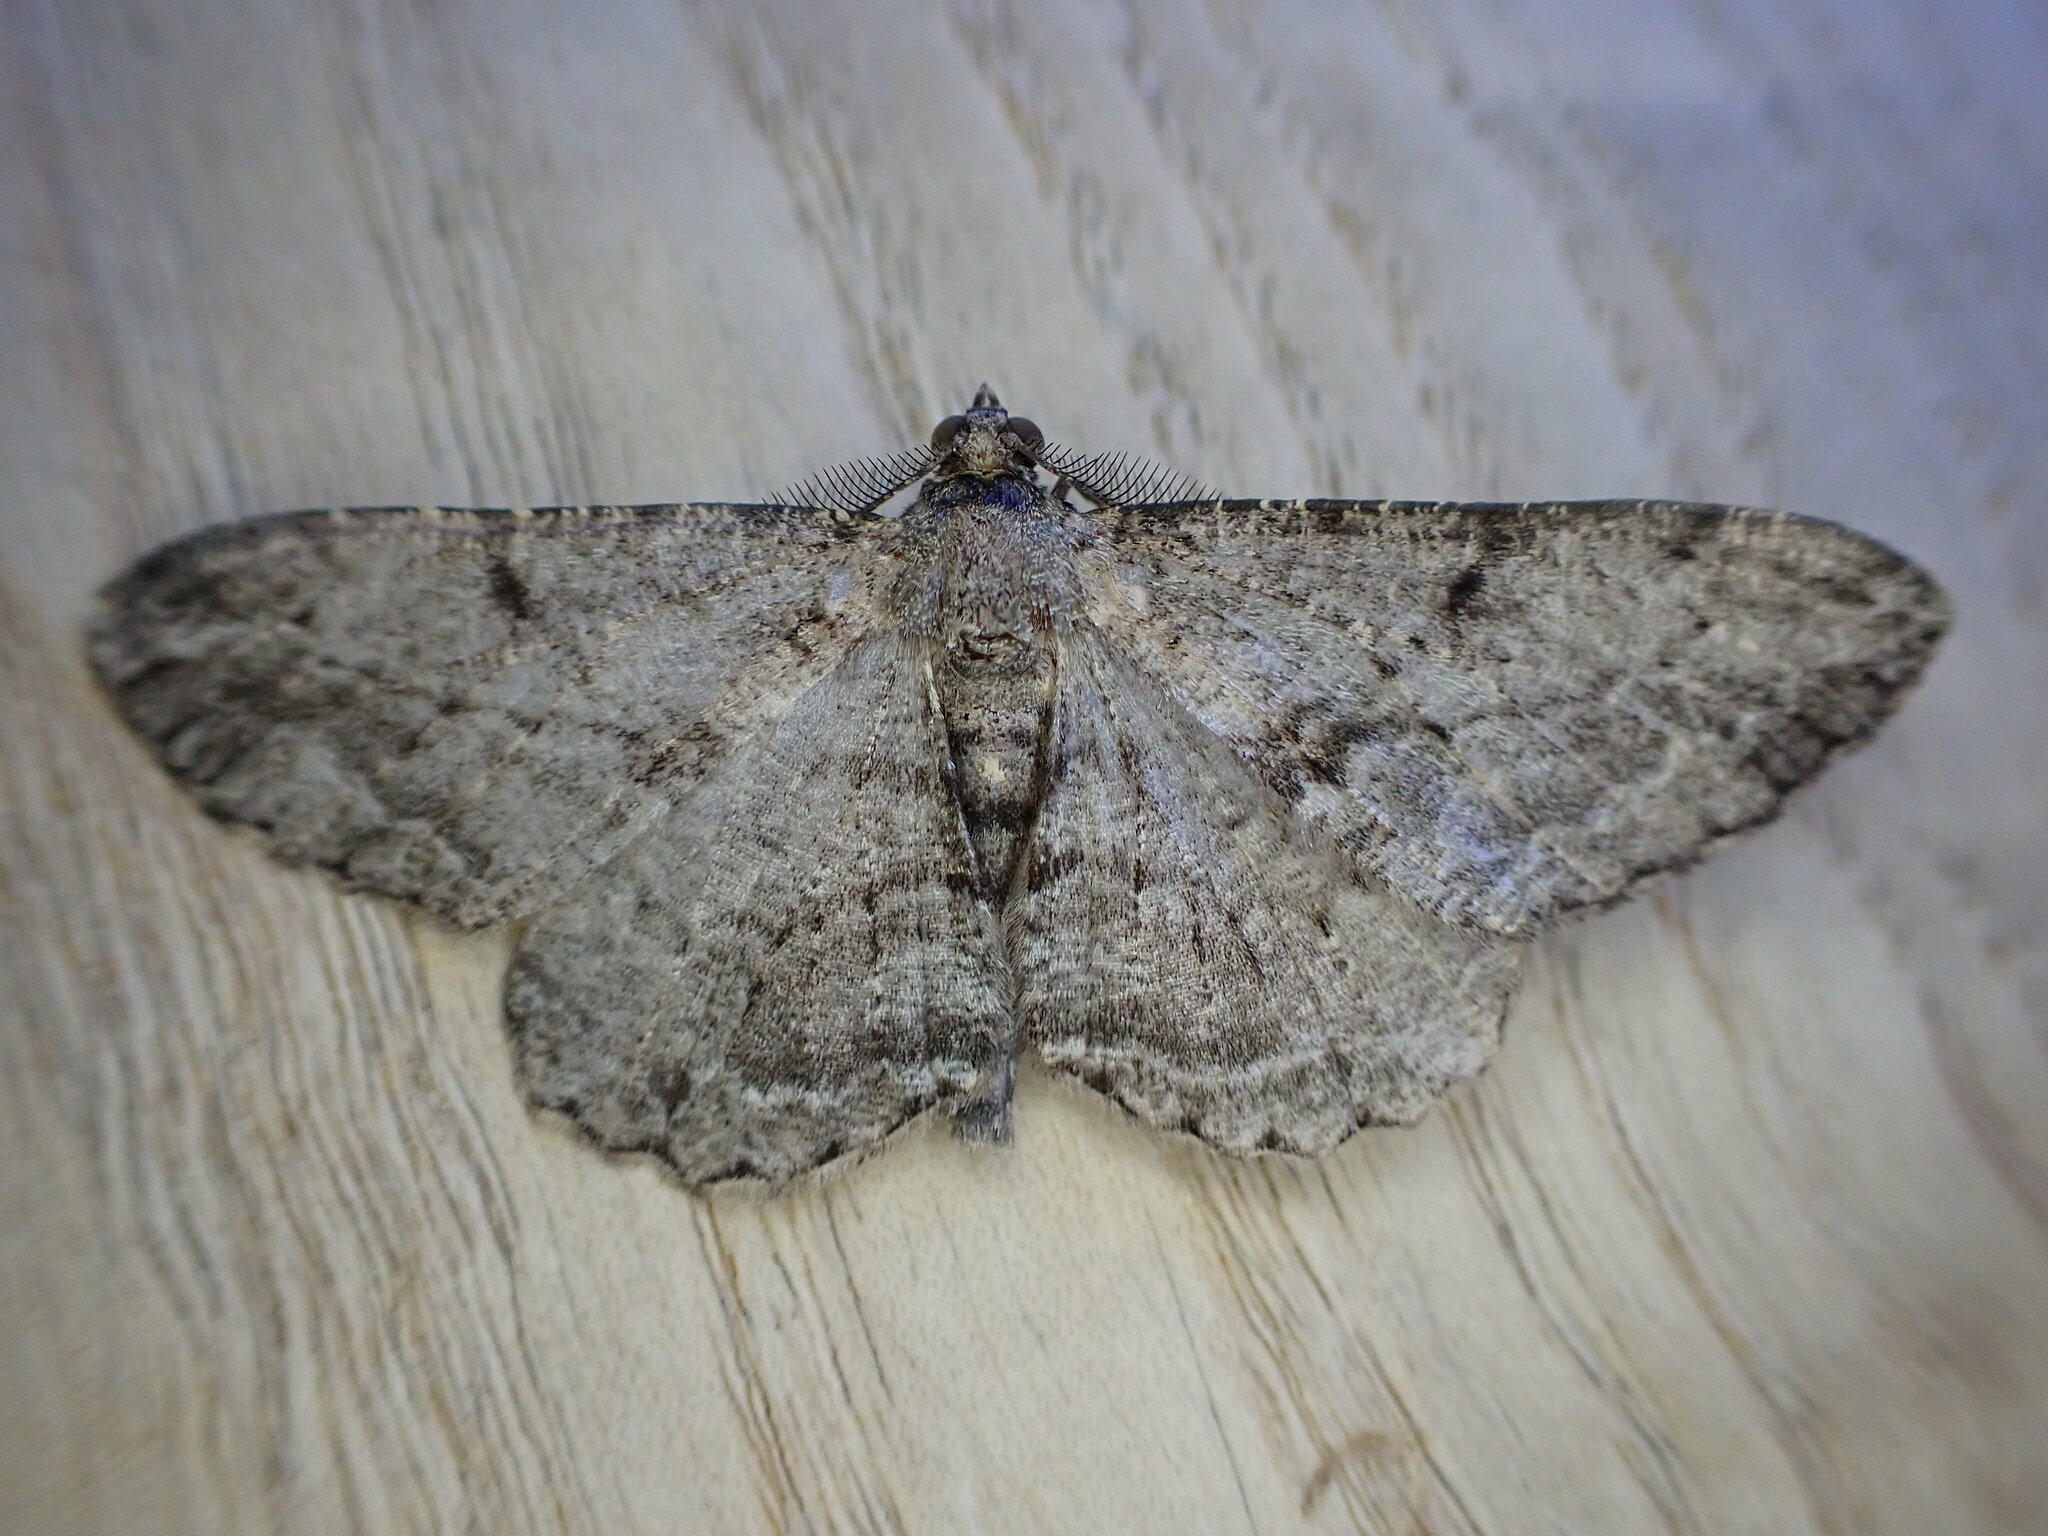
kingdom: Animalia
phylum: Arthropoda
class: Insecta
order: Lepidoptera
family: Geometridae
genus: Peribatodes
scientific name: Peribatodes rhomboidaria
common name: Willow beauty
